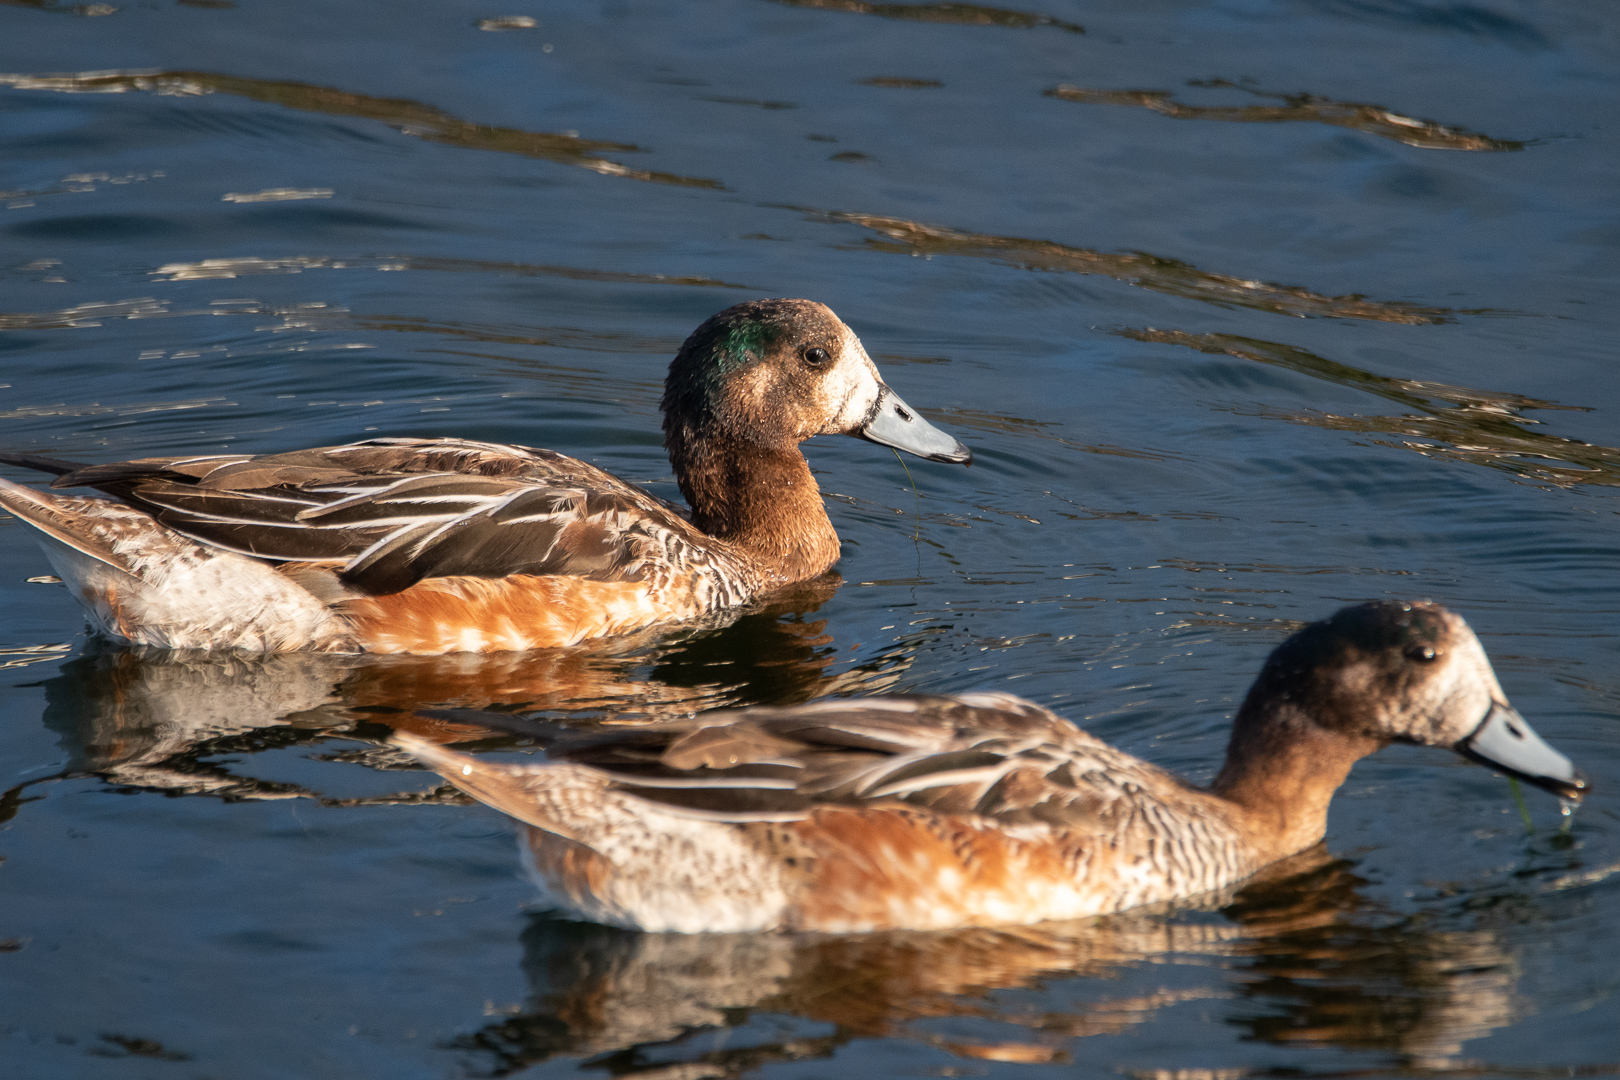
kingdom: Animalia
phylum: Chordata
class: Aves
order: Anseriformes
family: Anatidae
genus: Mareca
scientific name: Mareca sibilatrix
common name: Chiloe wigeon
